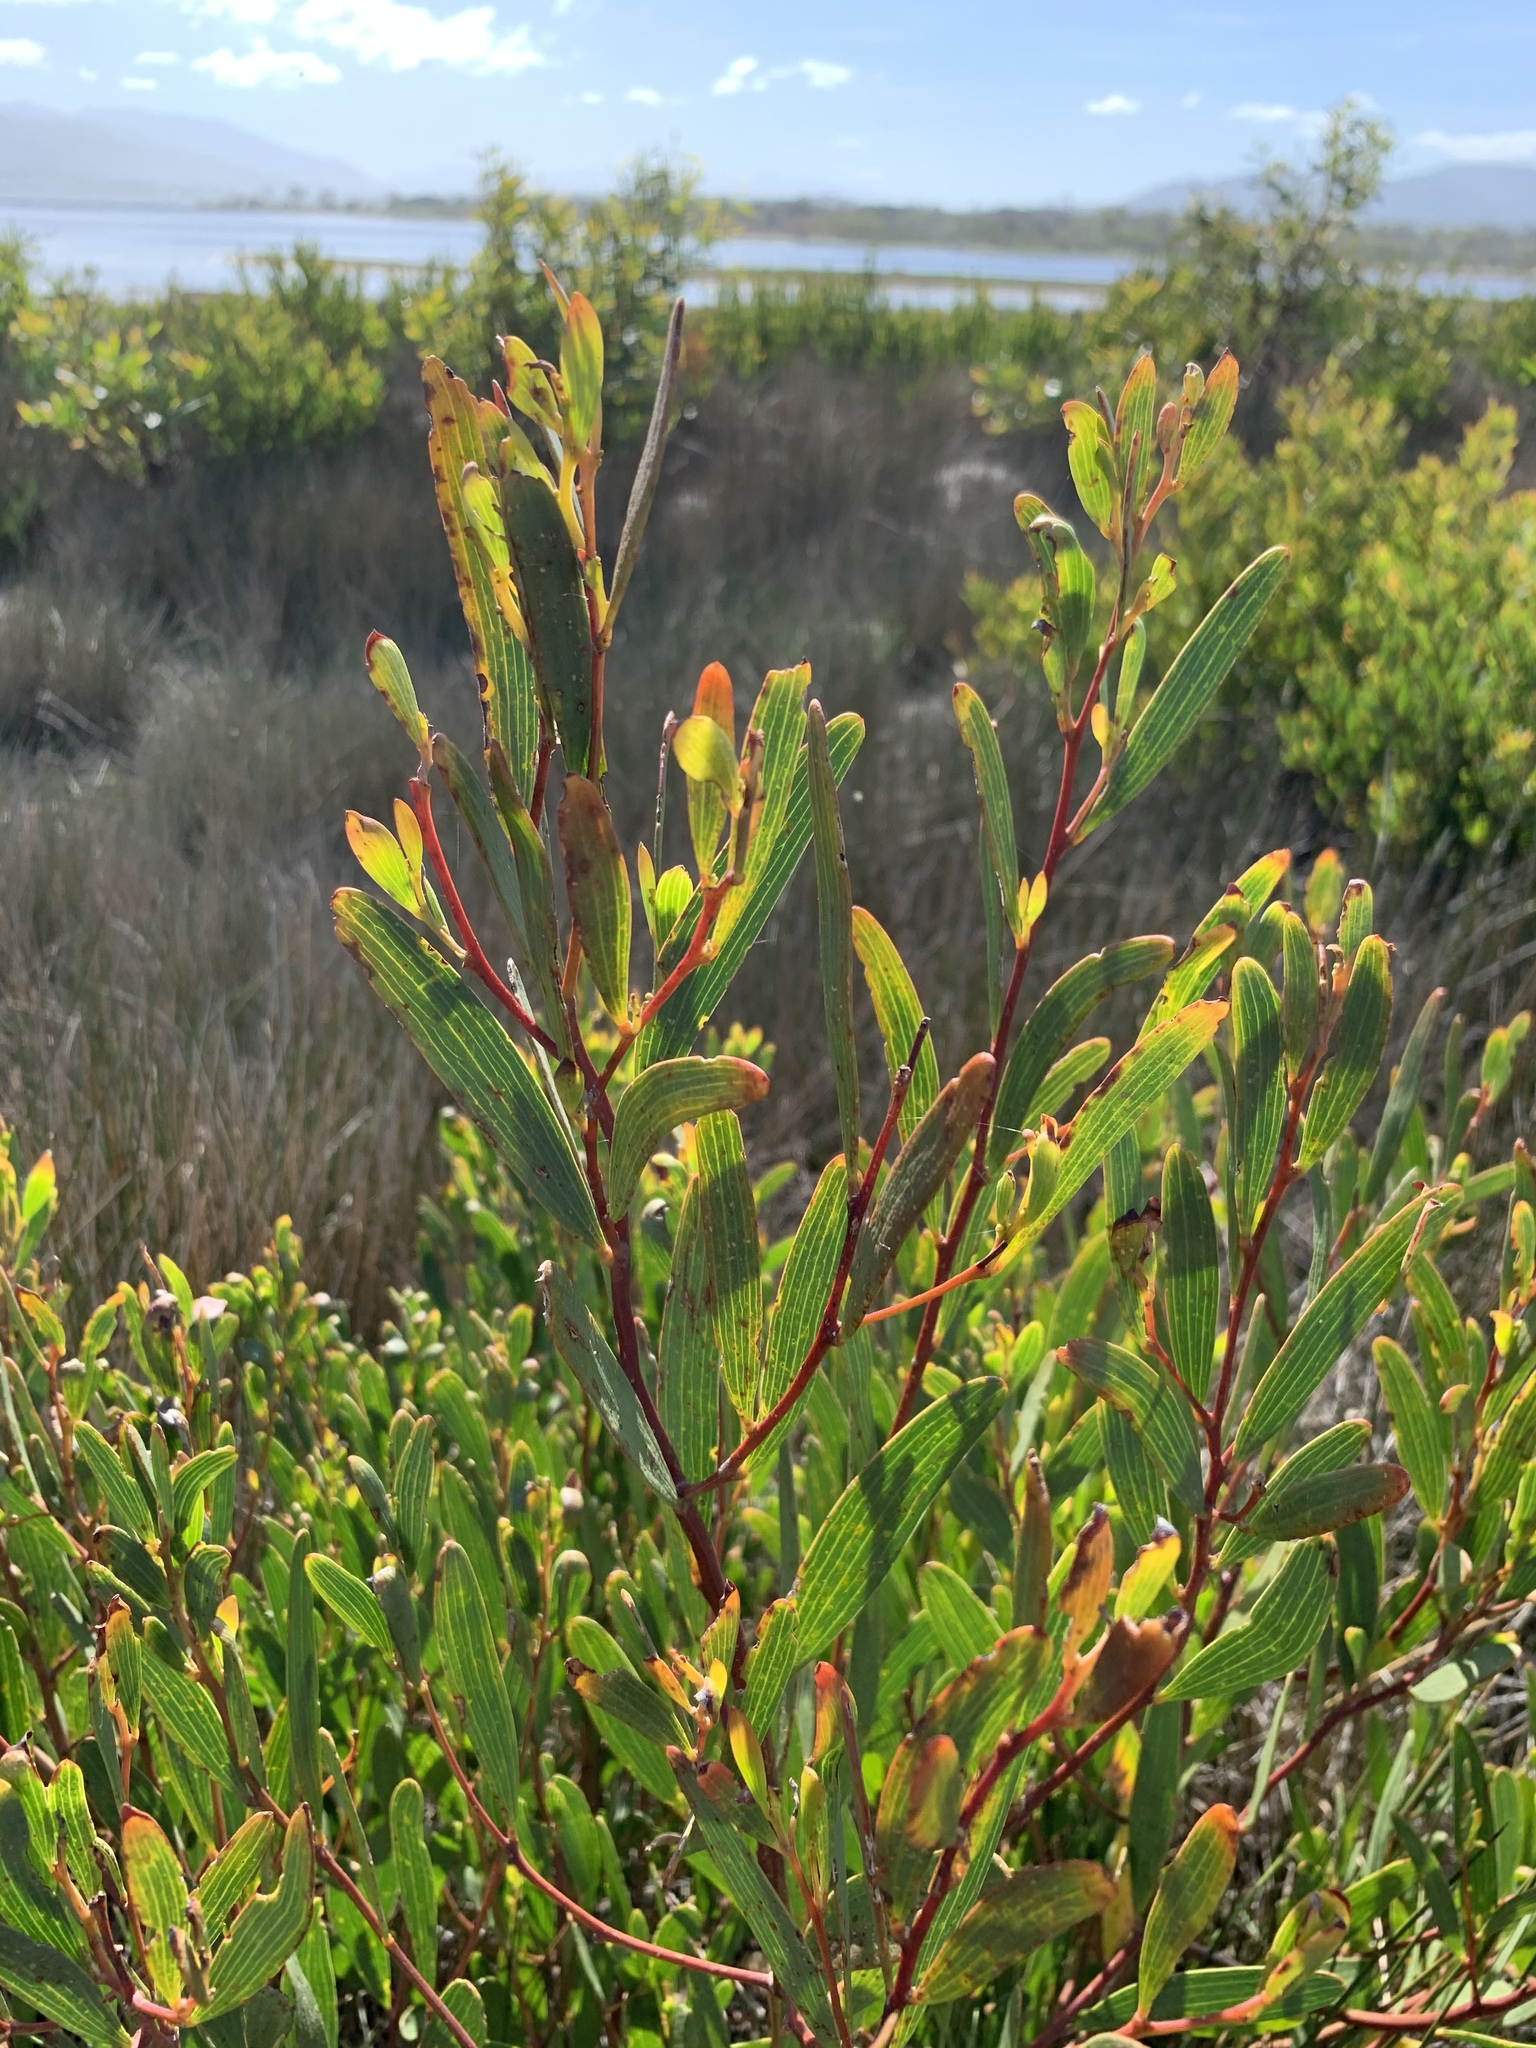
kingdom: Plantae
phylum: Tracheophyta
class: Magnoliopsida
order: Fabales
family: Fabaceae
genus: Acacia
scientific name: Acacia cyclops
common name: Coastal wattle
